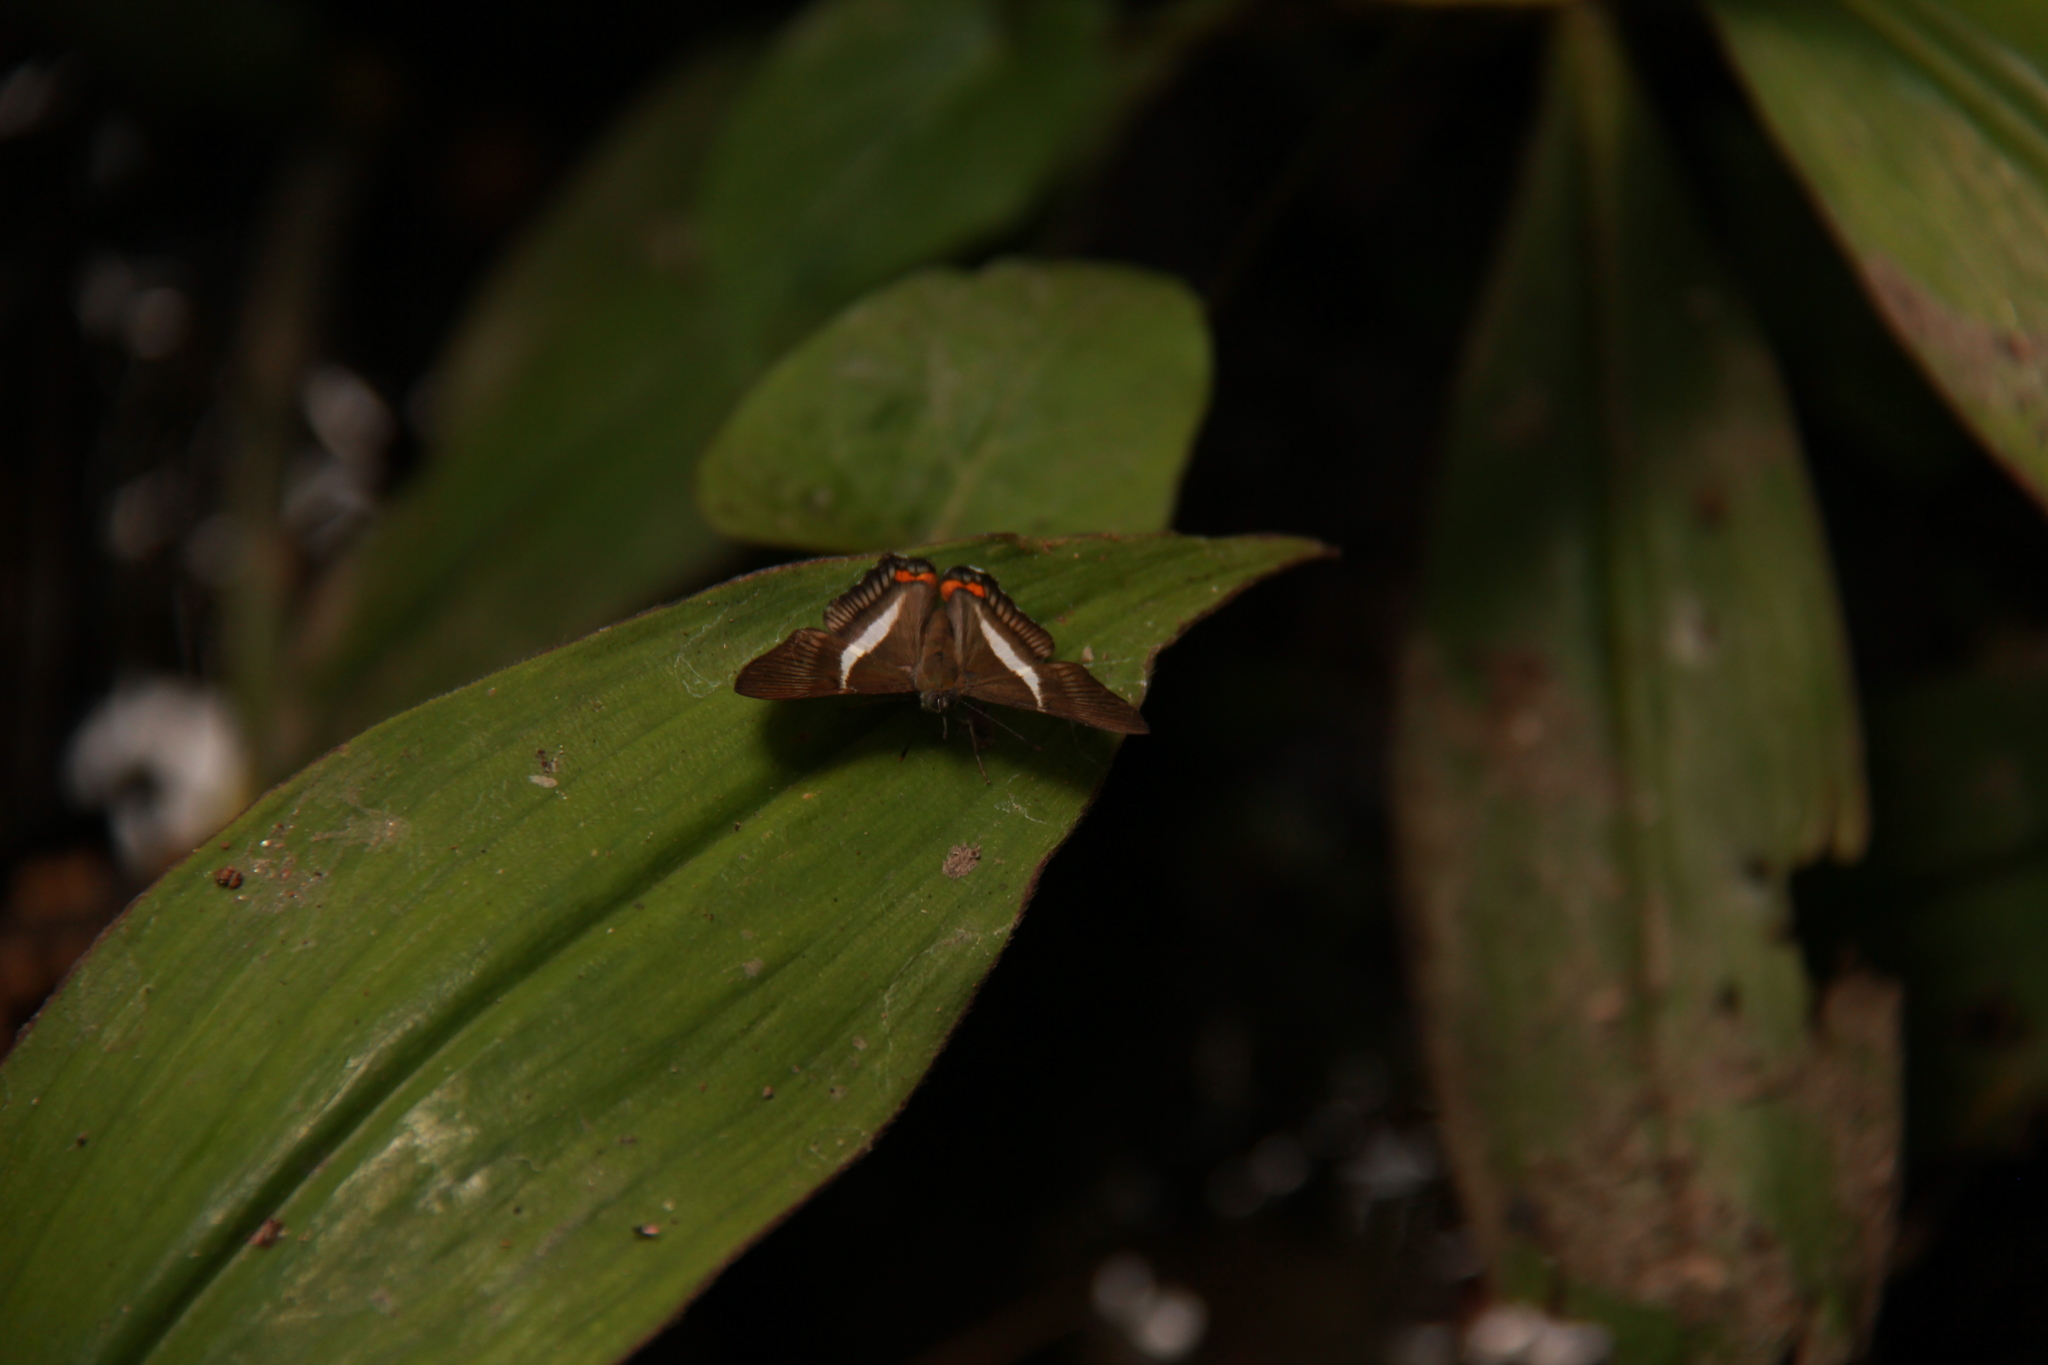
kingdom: Animalia
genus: Siseme
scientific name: Siseme pallas
